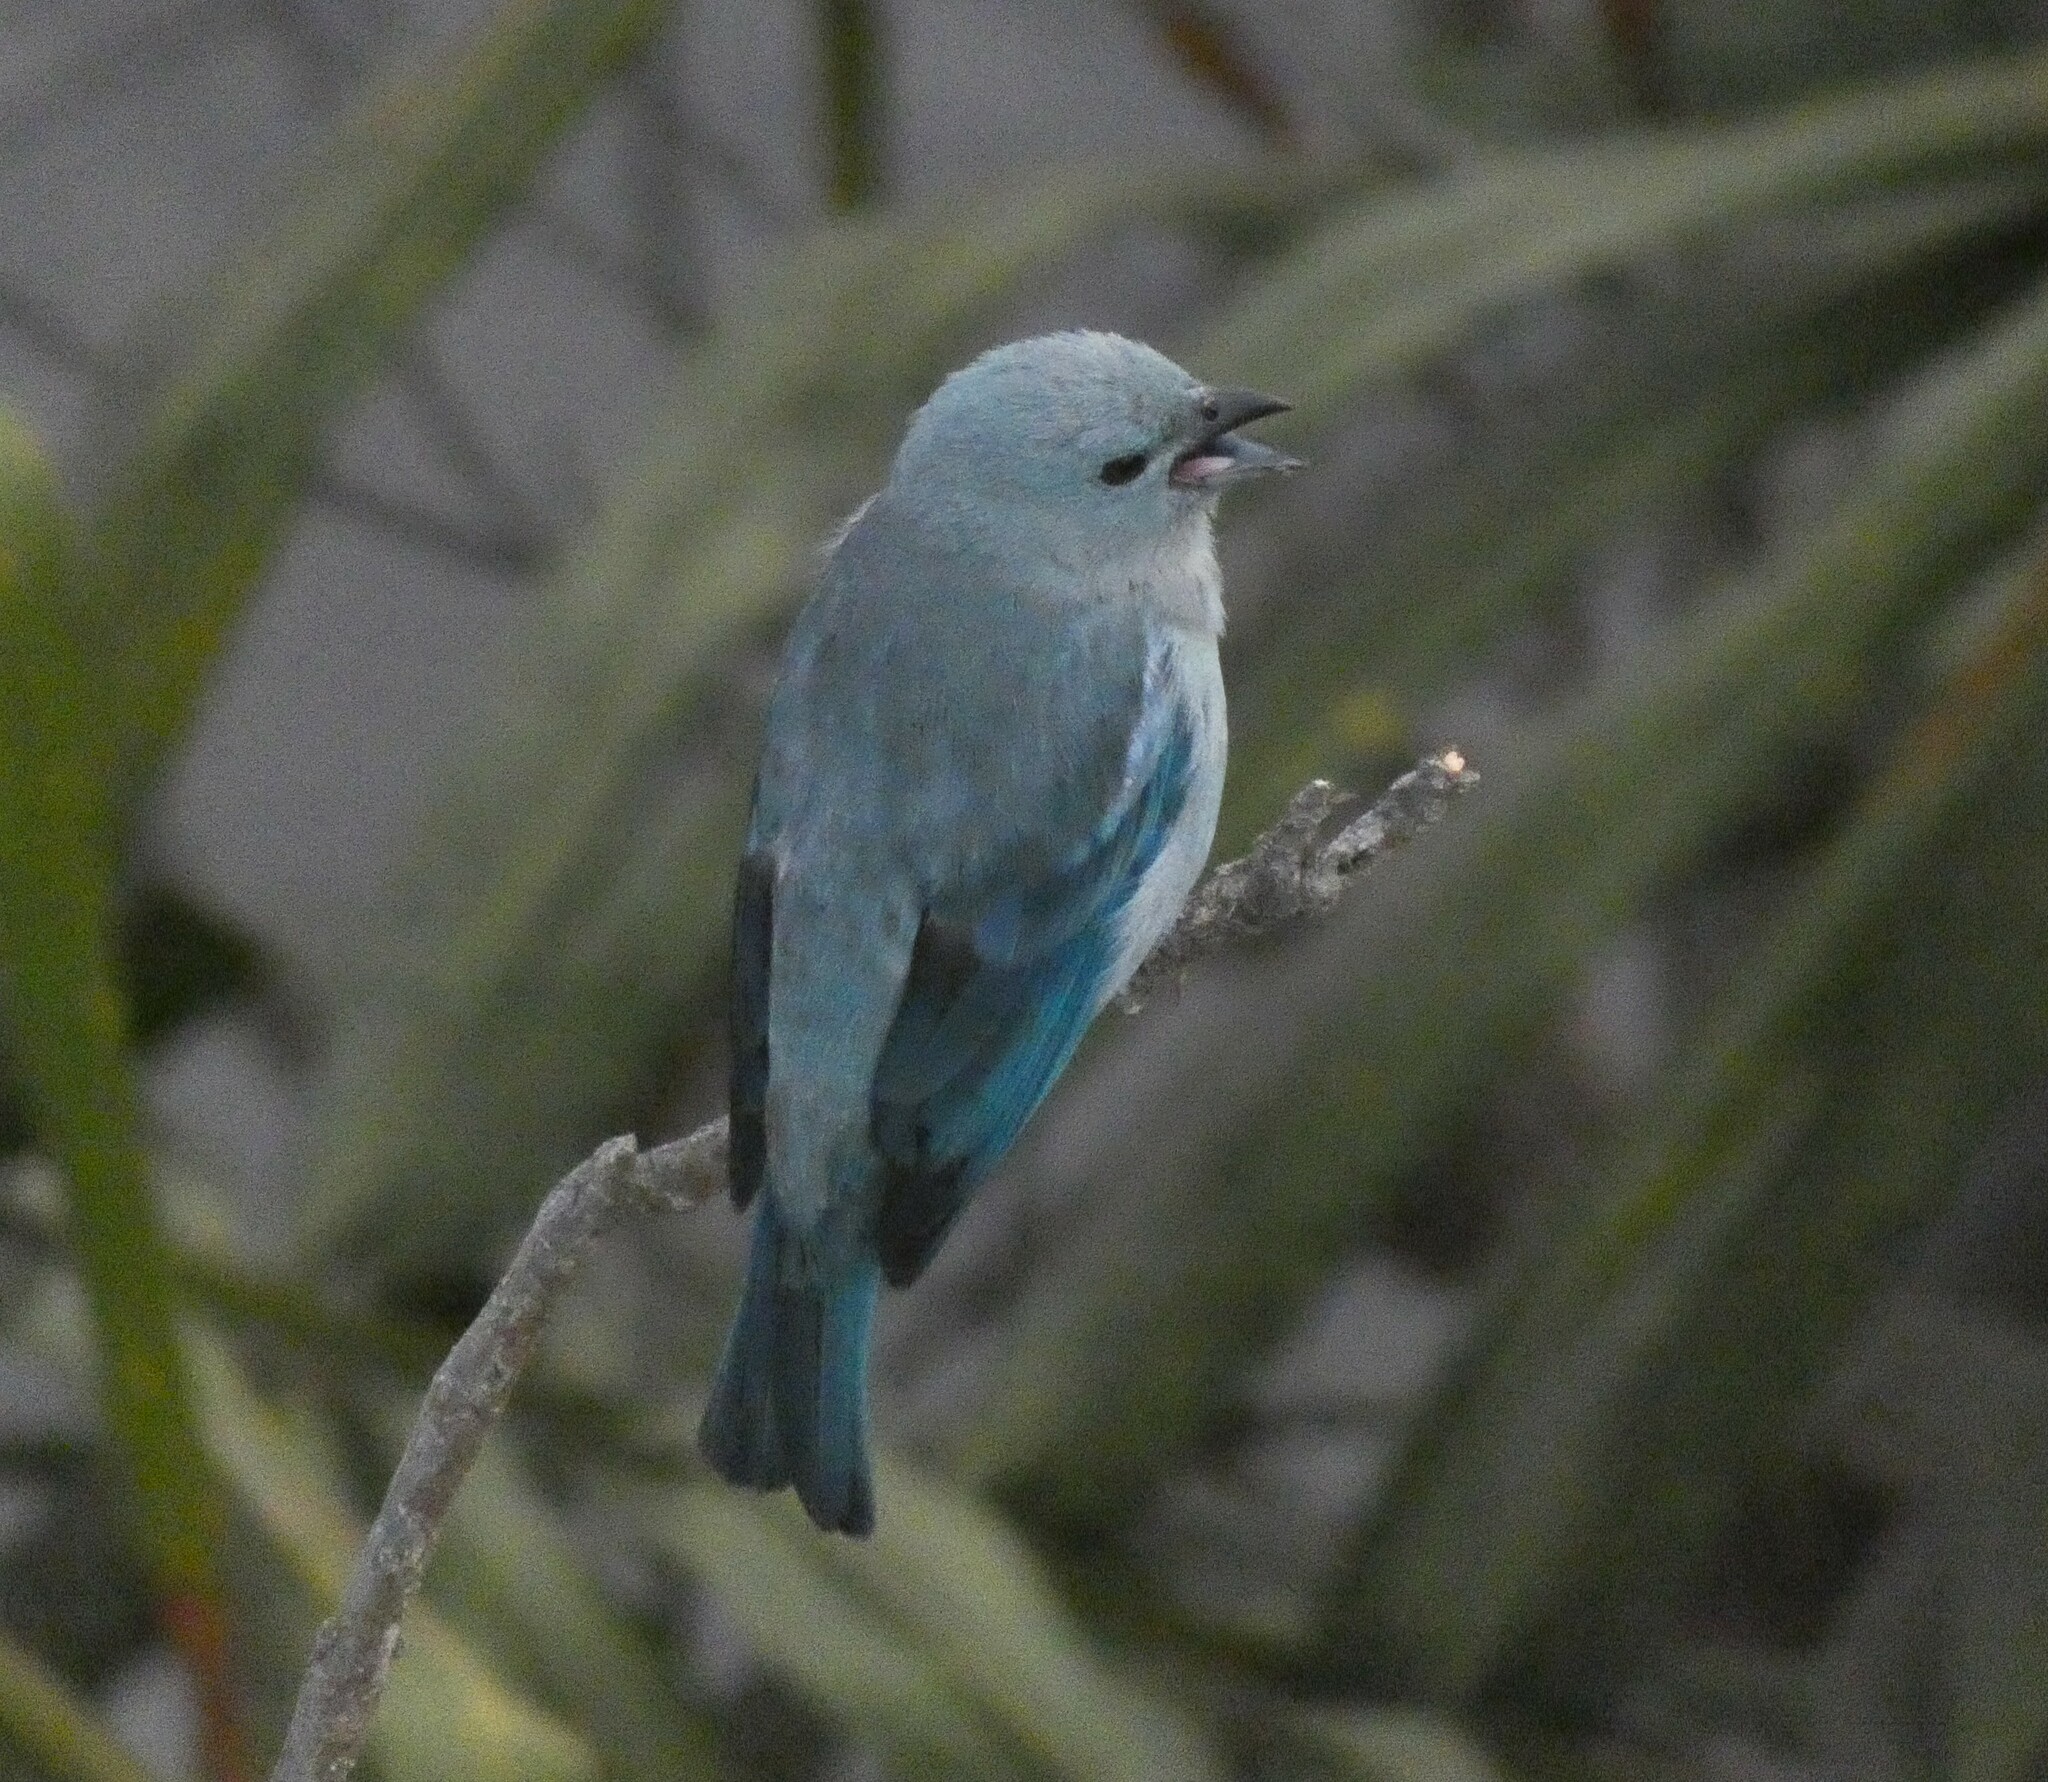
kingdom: Animalia
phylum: Chordata
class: Aves
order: Passeriformes
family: Thraupidae
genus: Thraupis
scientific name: Thraupis episcopus
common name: Blue-grey tanager
